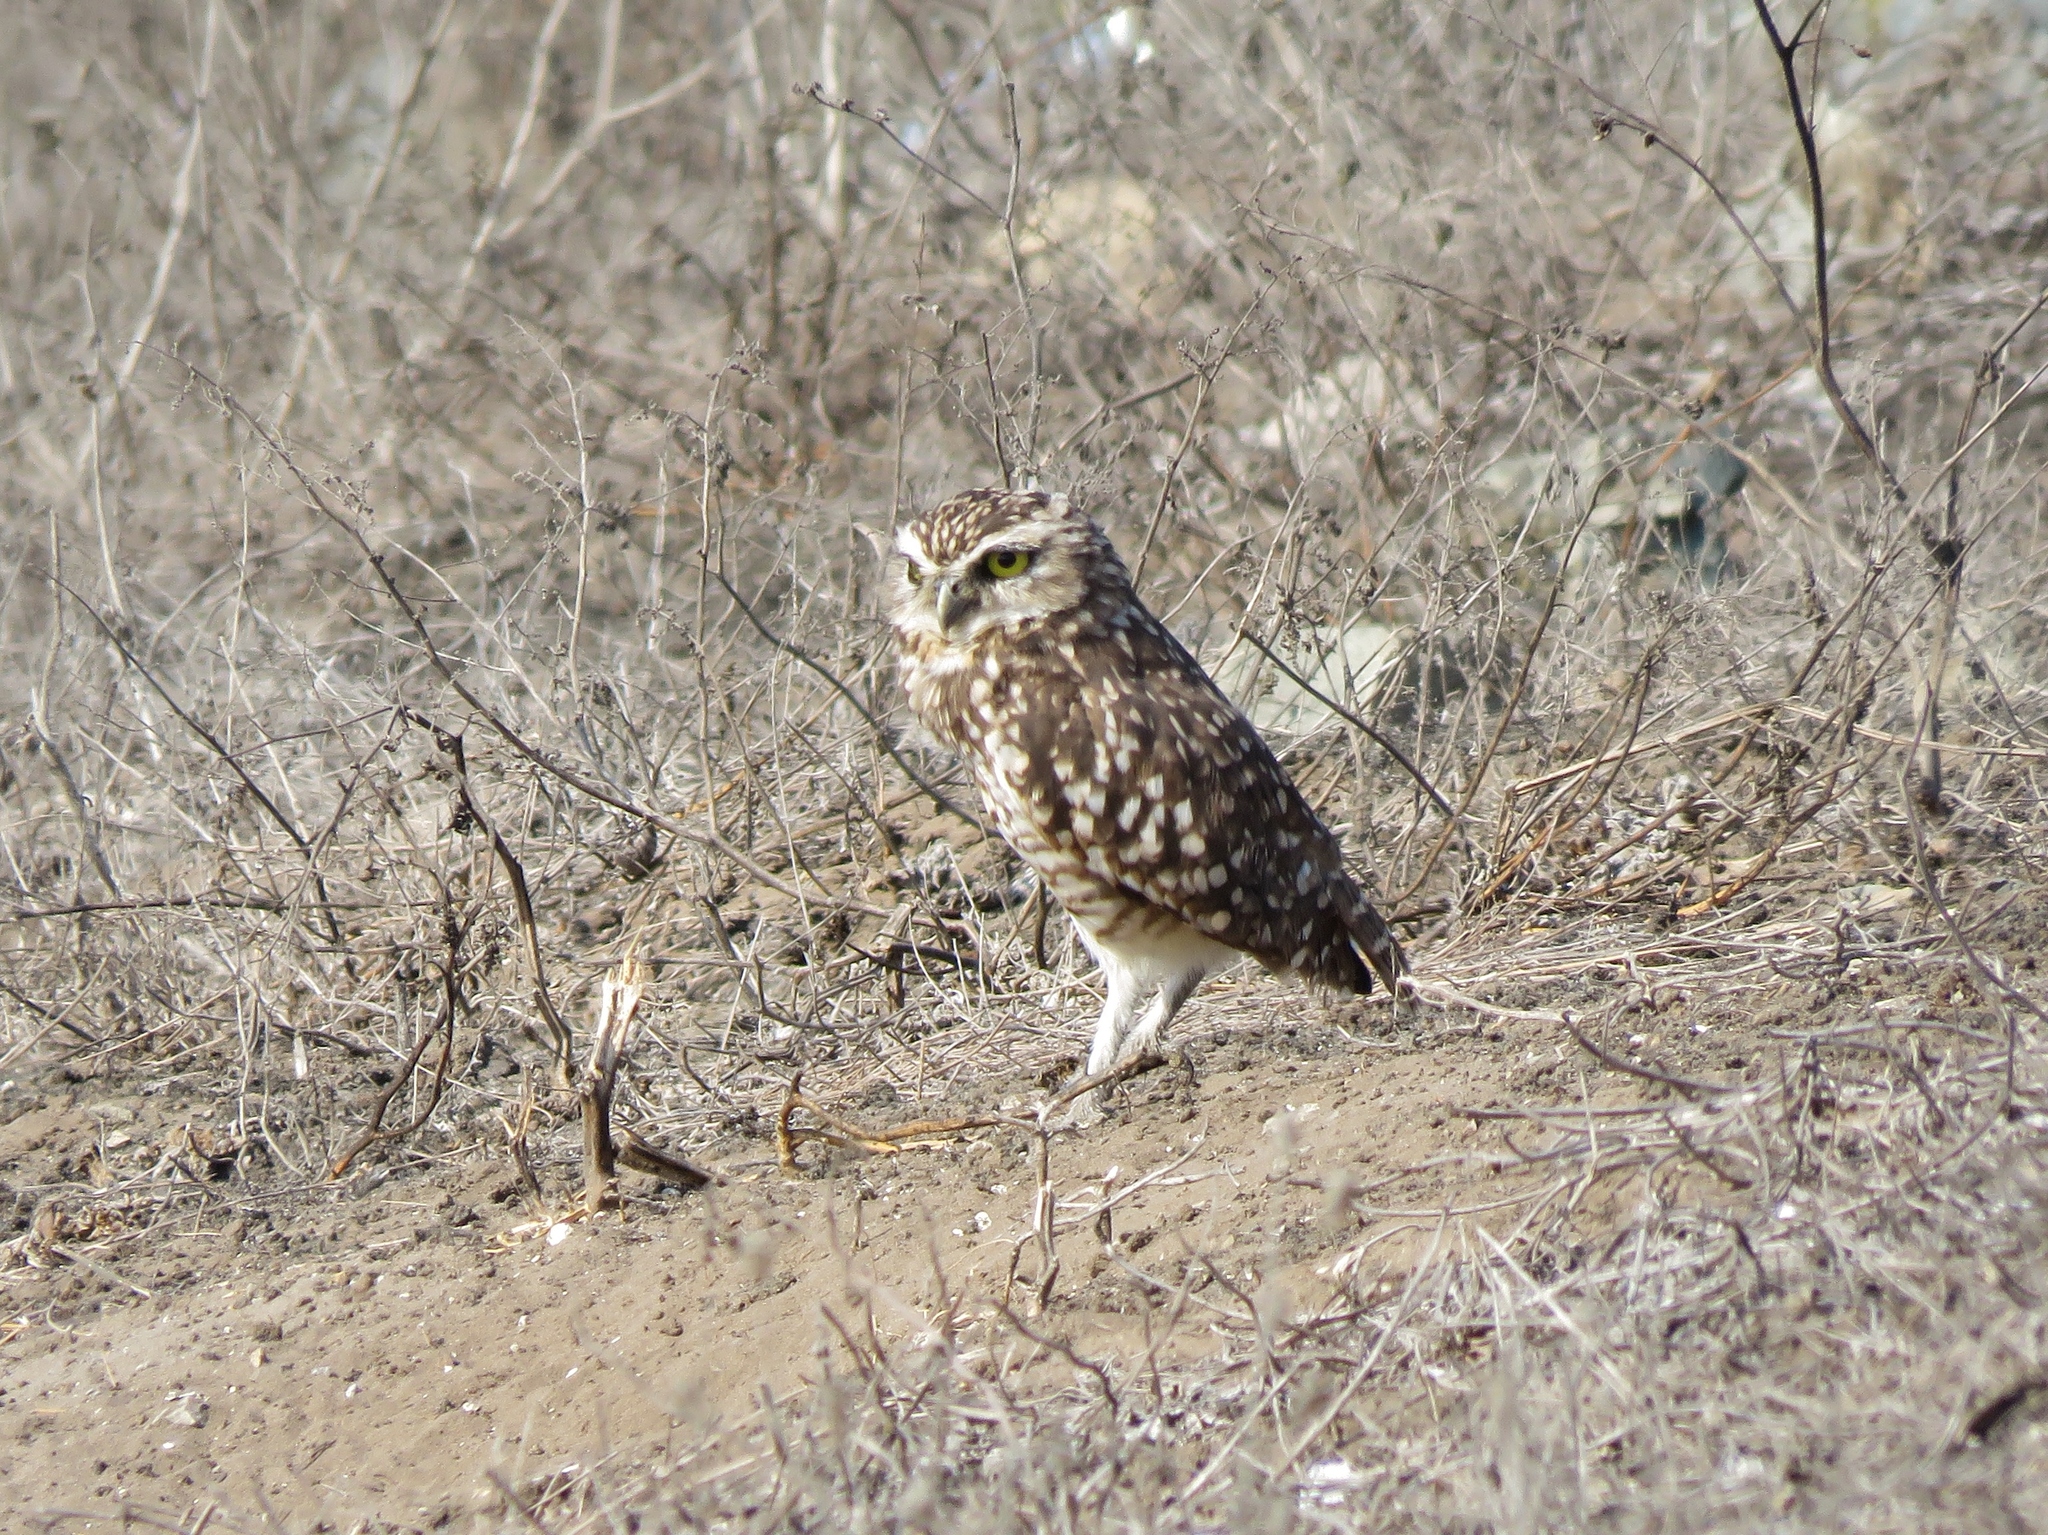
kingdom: Animalia
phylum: Chordata
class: Aves
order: Strigiformes
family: Strigidae
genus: Athene
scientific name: Athene cunicularia
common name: Burrowing owl
